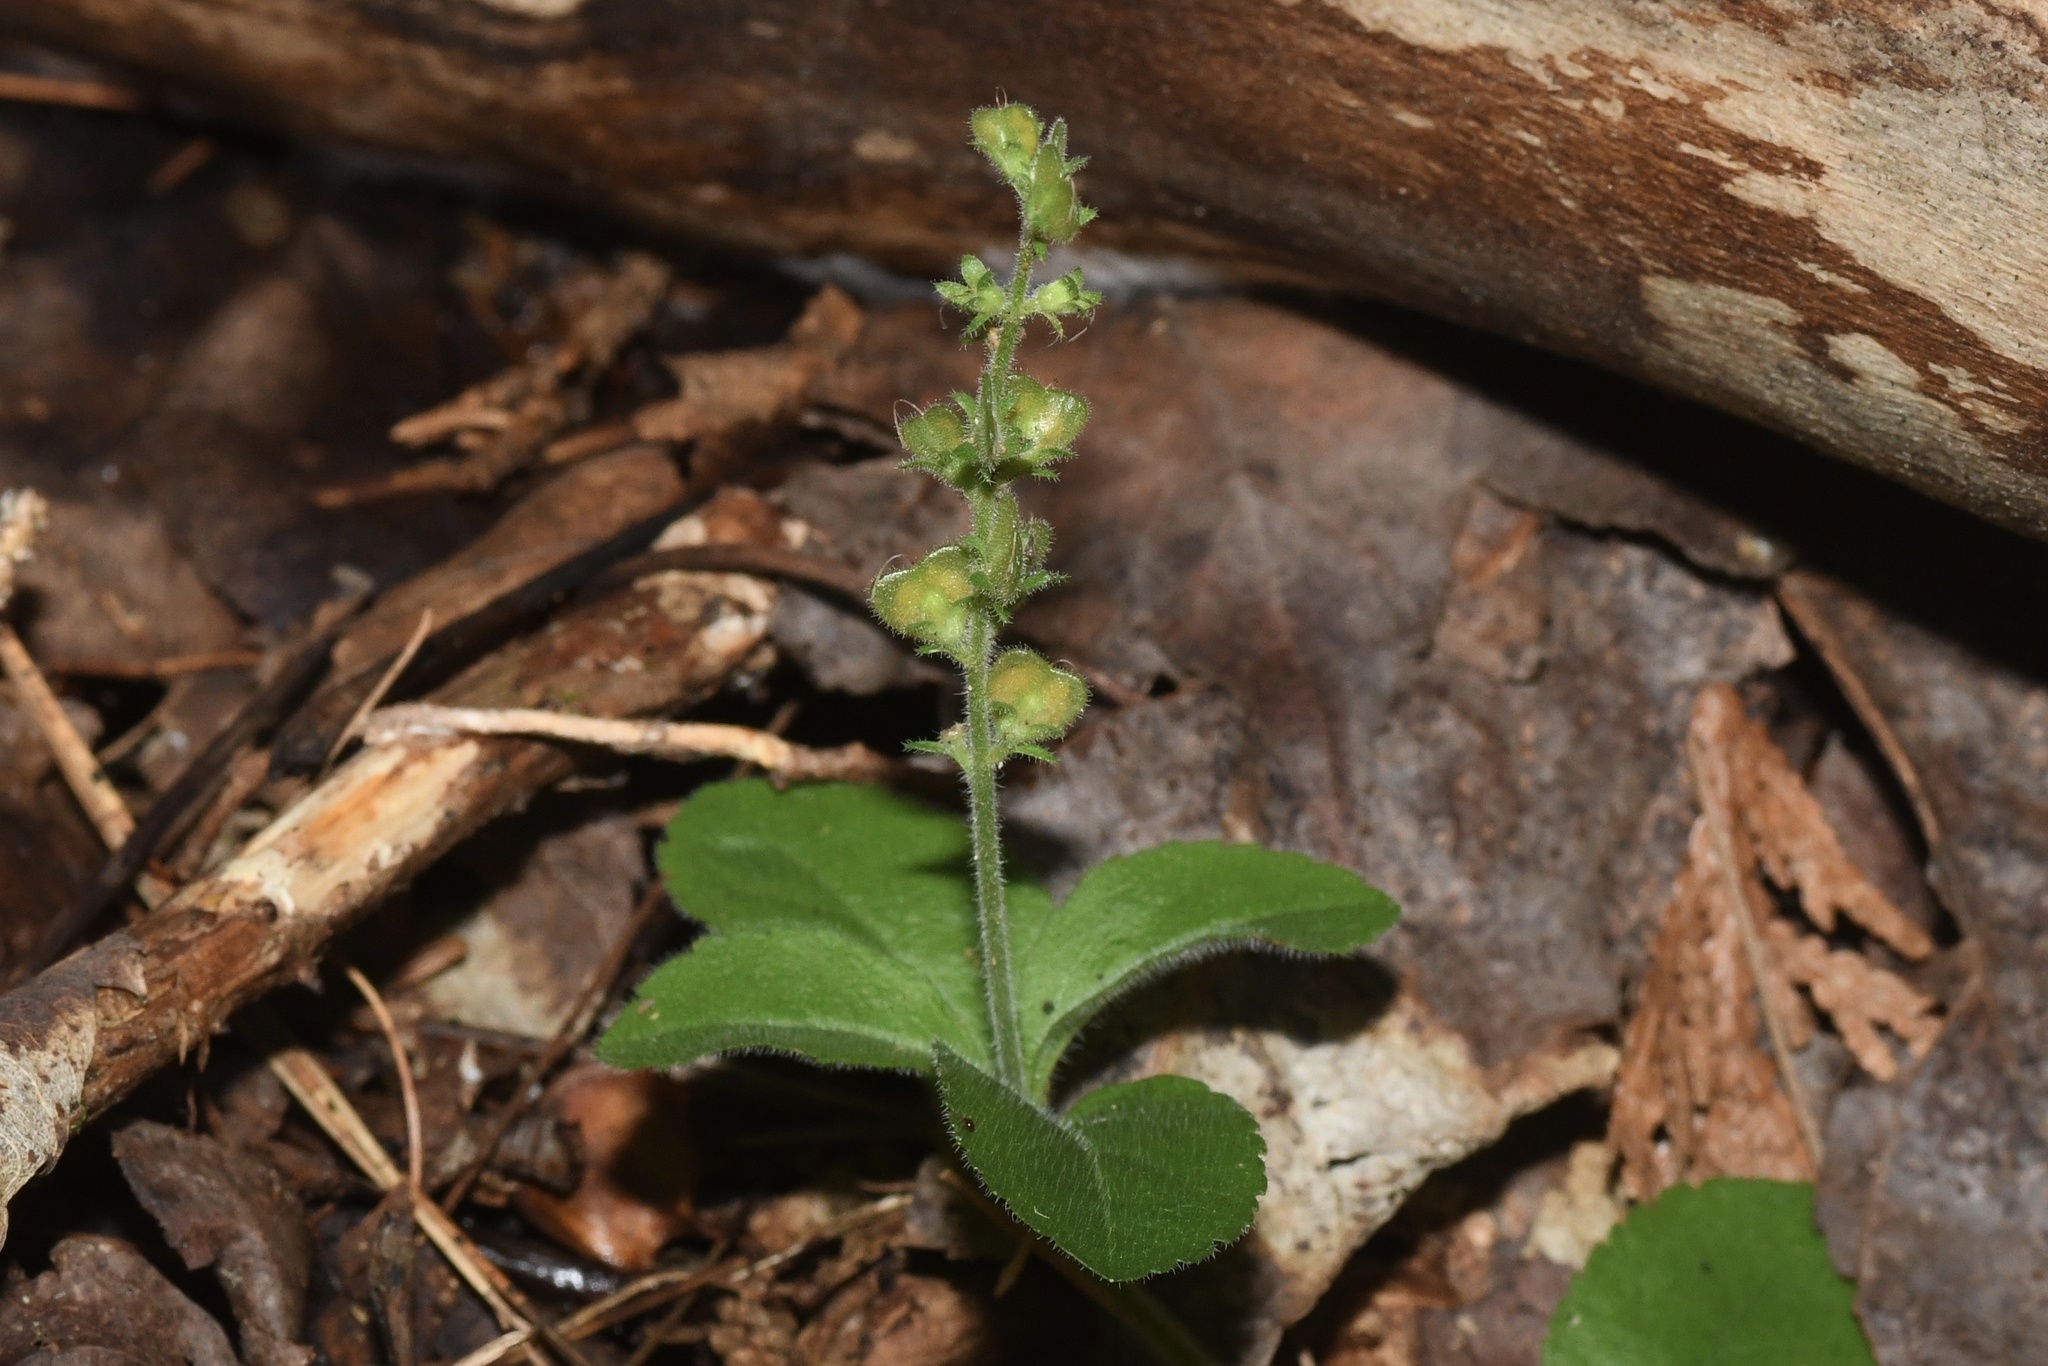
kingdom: Plantae
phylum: Tracheophyta
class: Magnoliopsida
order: Lamiales
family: Plantaginaceae
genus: Veronica
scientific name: Veronica officinalis
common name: Common speedwell
